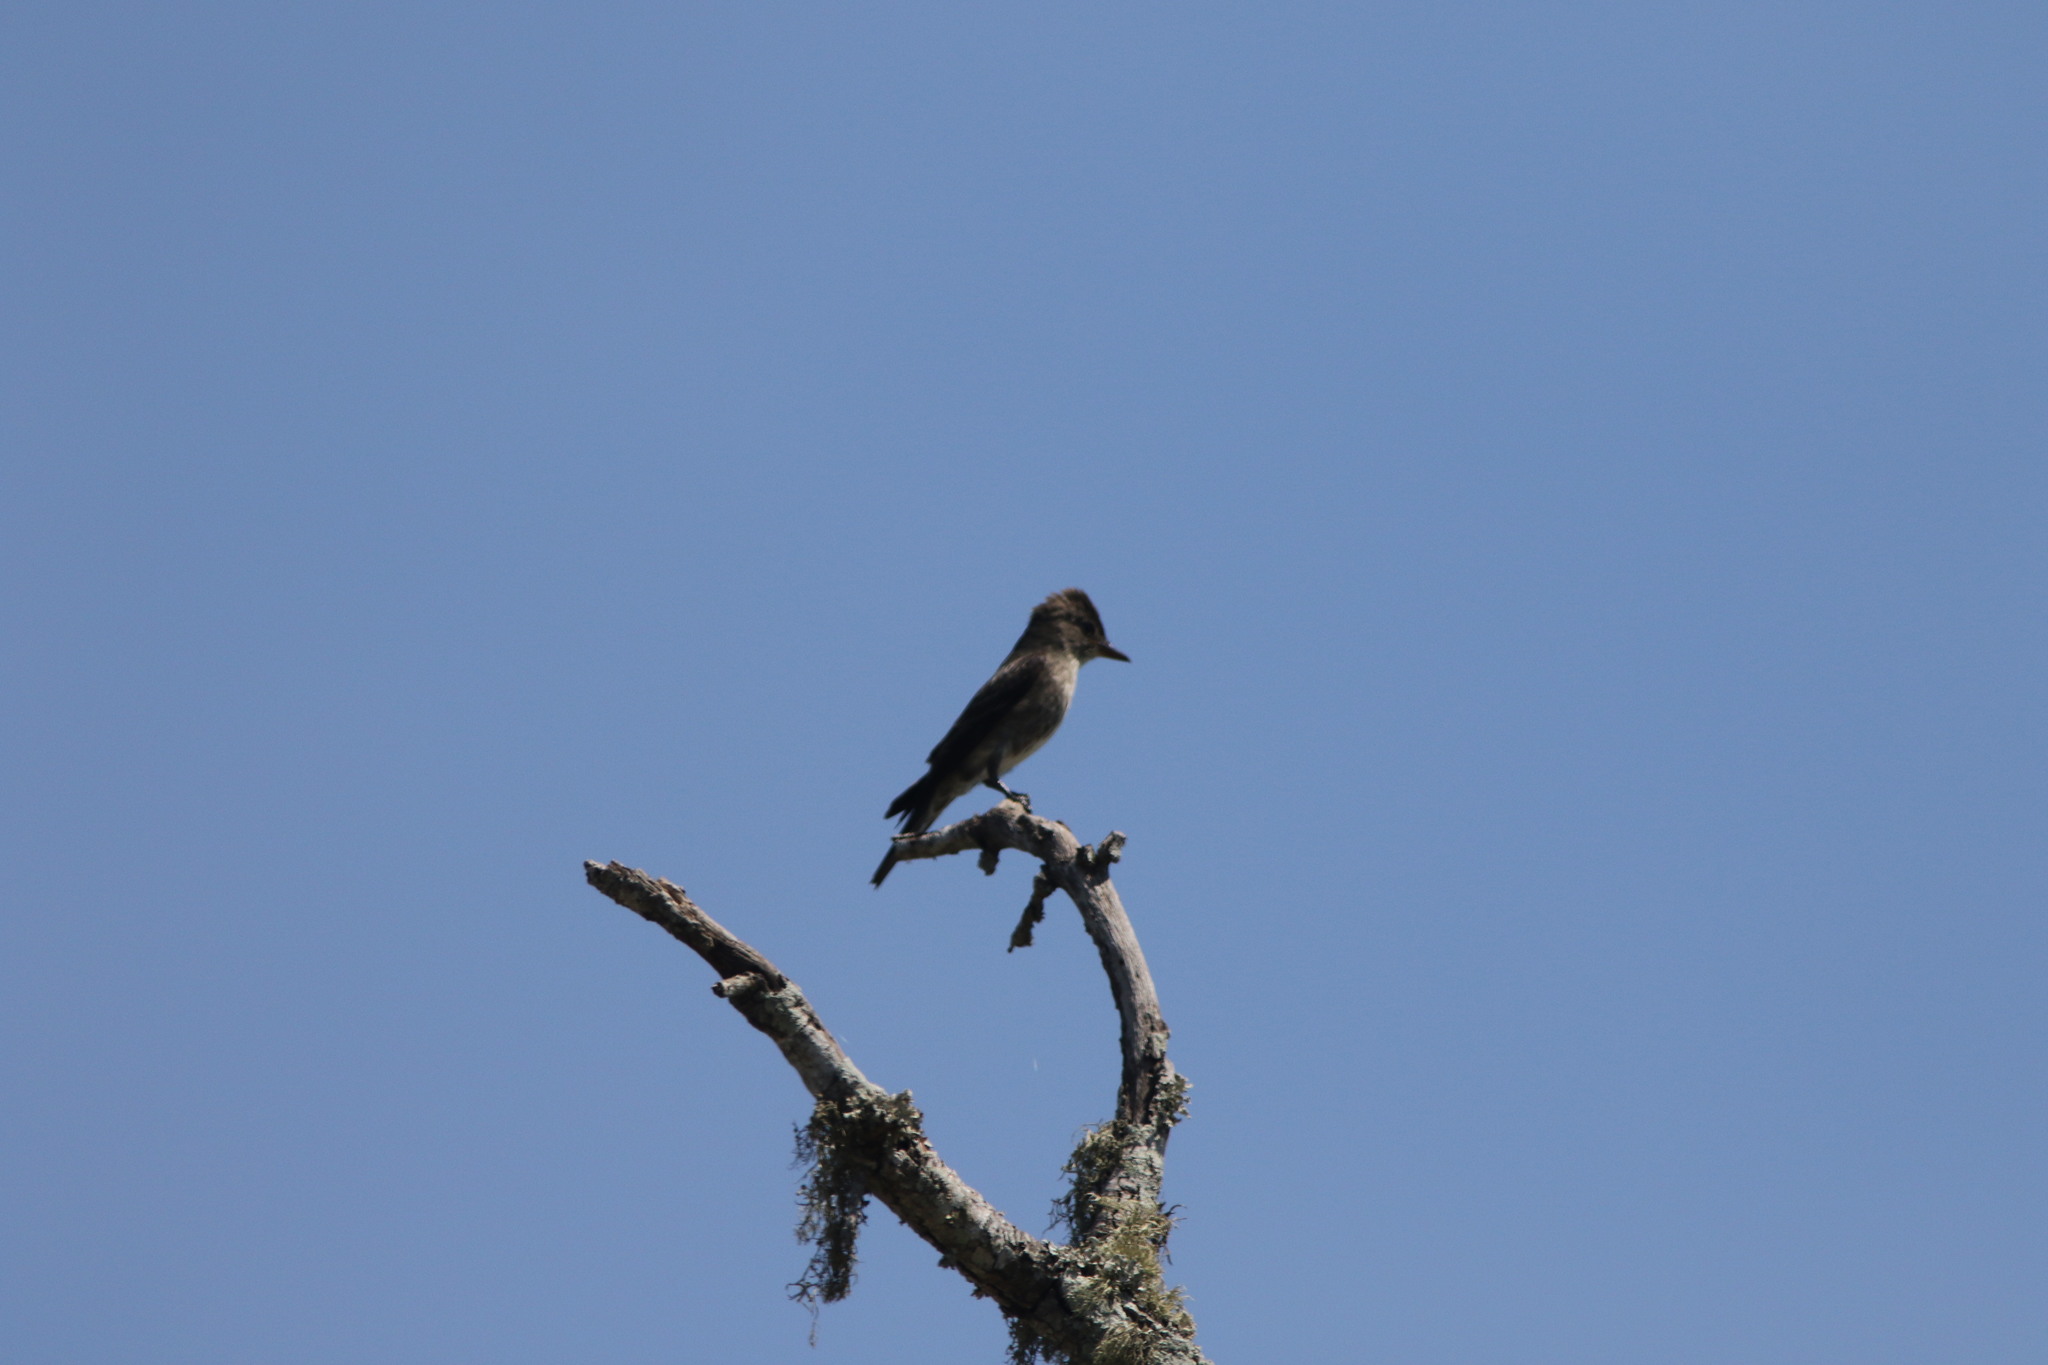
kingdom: Animalia
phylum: Chordata
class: Aves
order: Passeriformes
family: Tyrannidae
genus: Contopus
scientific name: Contopus cooperi
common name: Olive-sided flycatcher
